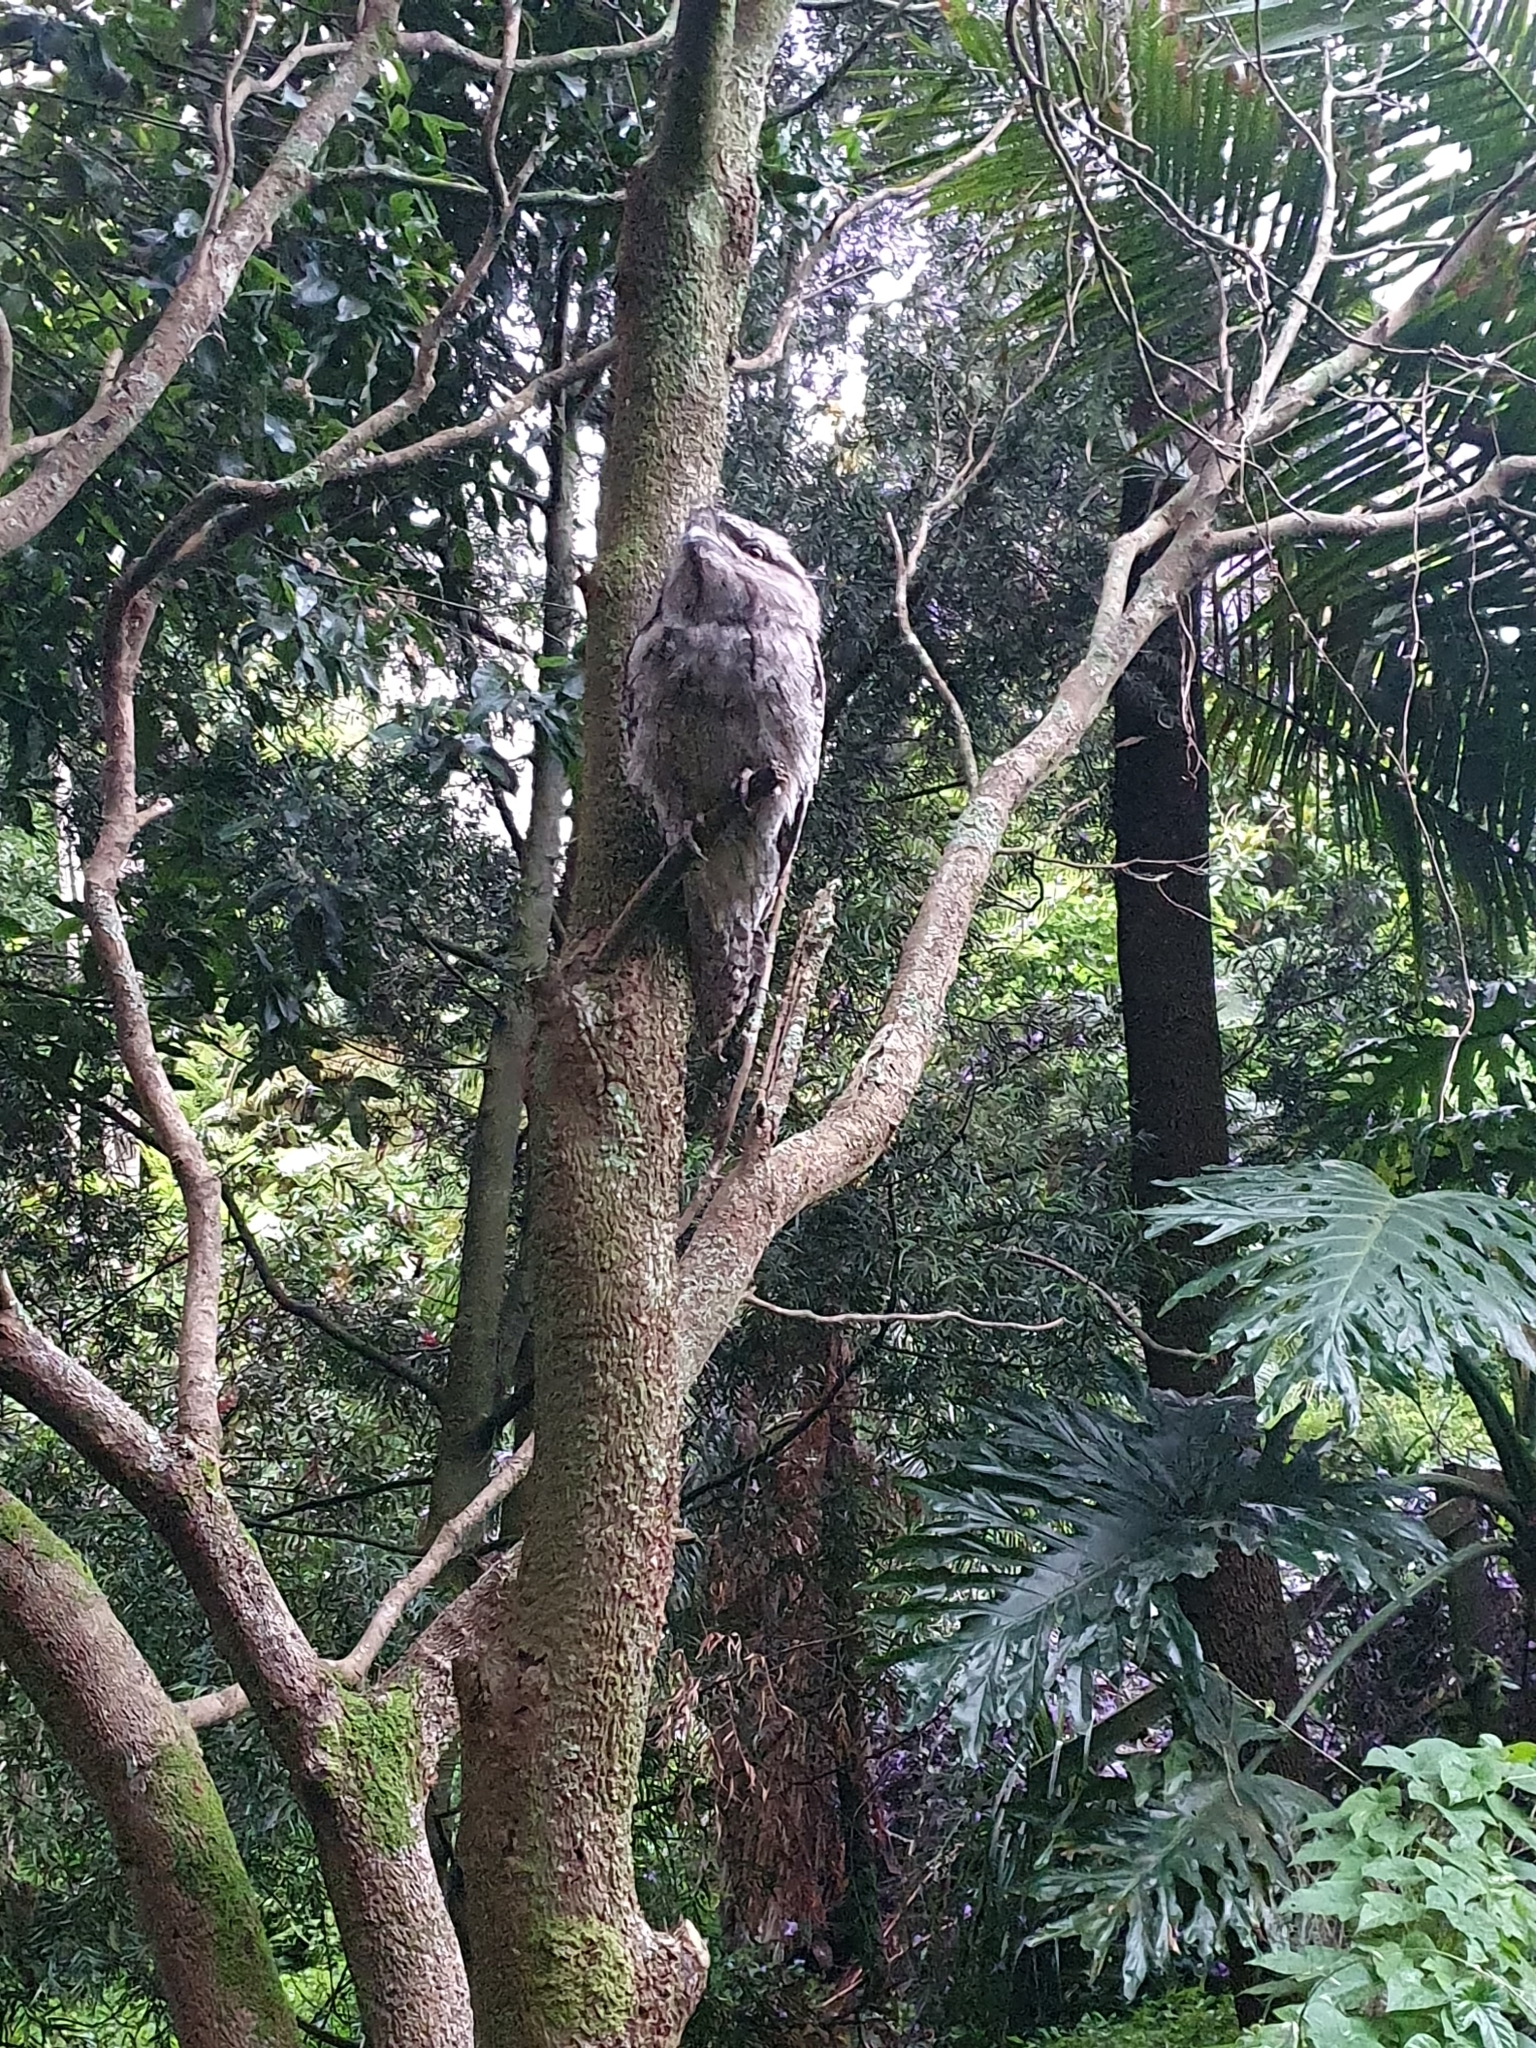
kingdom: Animalia
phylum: Chordata
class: Aves
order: Caprimulgiformes
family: Podargidae
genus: Podargus
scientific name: Podargus strigoides
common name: Tawny frogmouth
